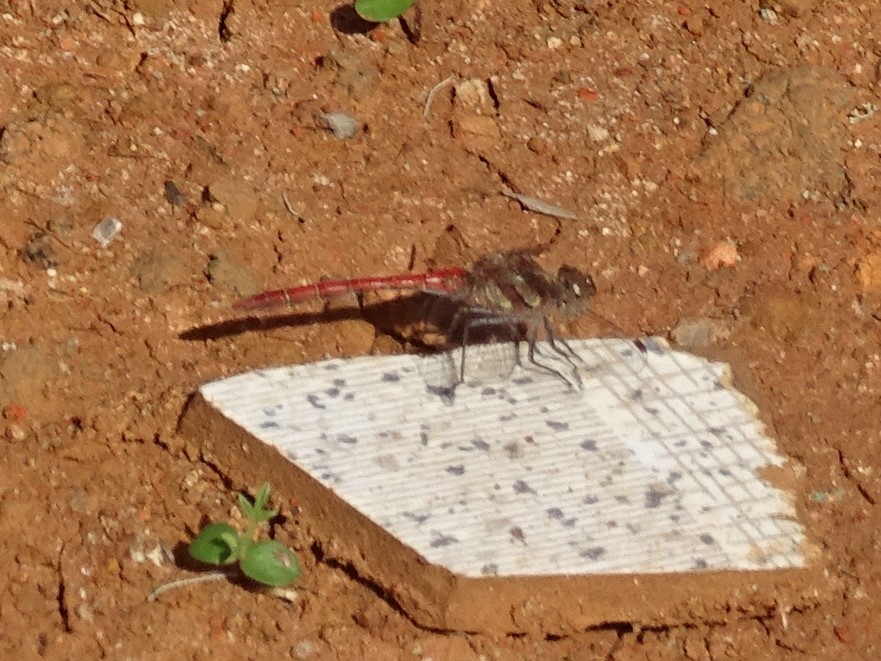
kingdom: Animalia
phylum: Arthropoda
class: Insecta
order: Odonata
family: Libellulidae
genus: Sympetrum
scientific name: Sympetrum nigrifemur
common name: Island darter
